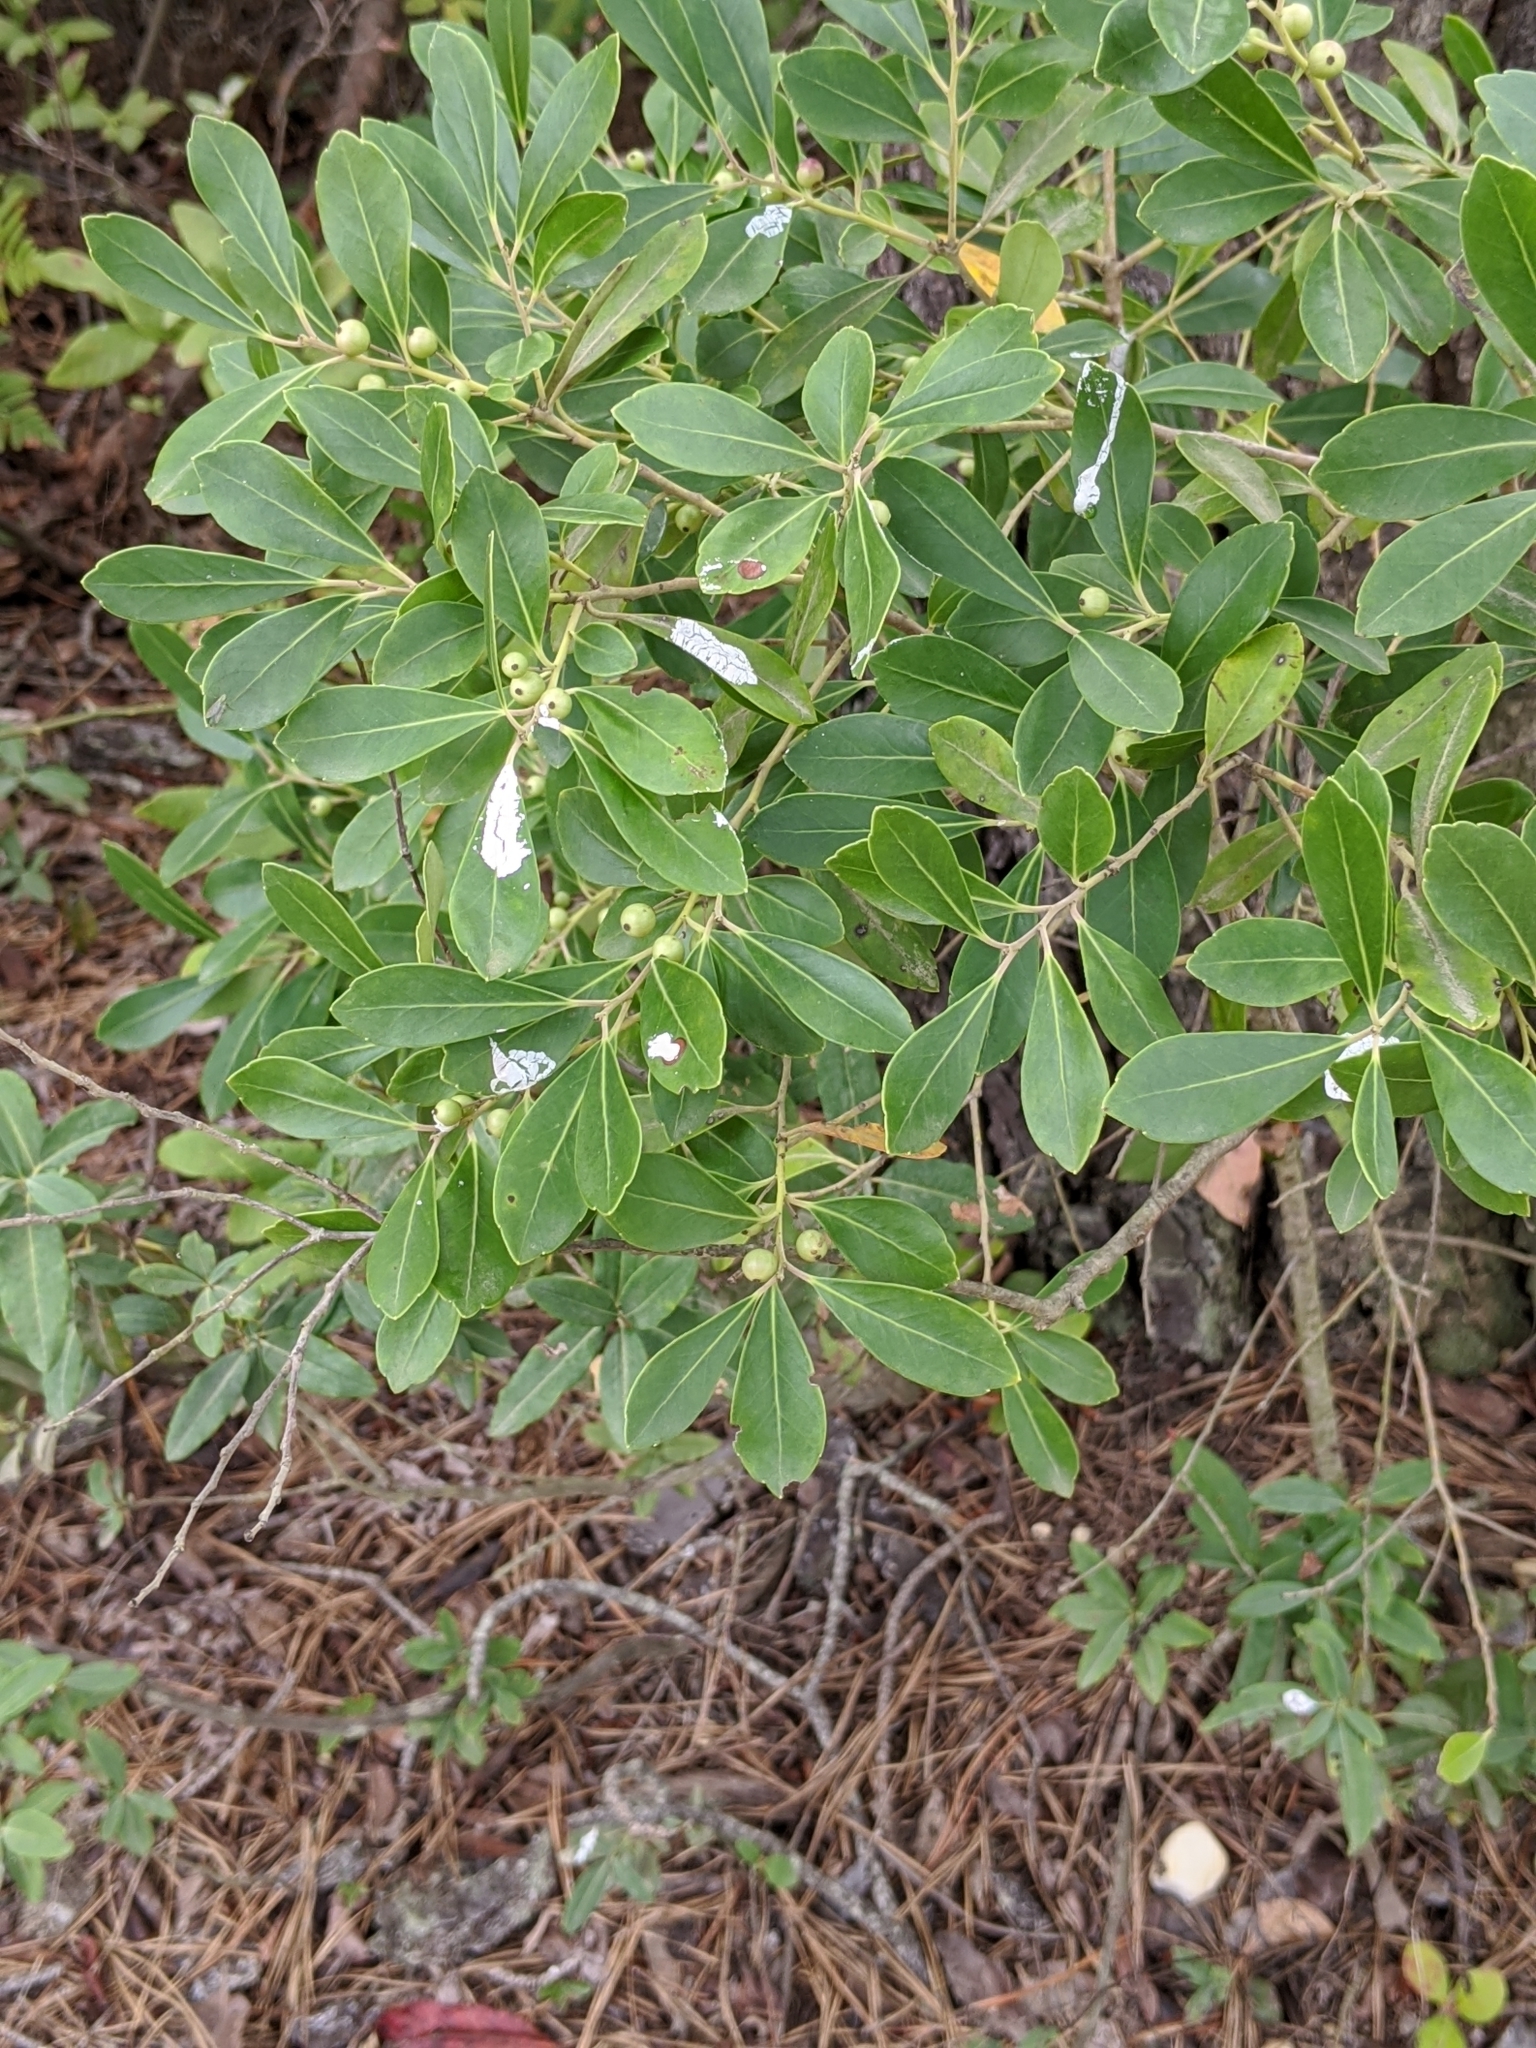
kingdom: Plantae
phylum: Tracheophyta
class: Magnoliopsida
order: Aquifoliales
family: Aquifoliaceae
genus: Ilex
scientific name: Ilex glabra
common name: Bitter gallberry
